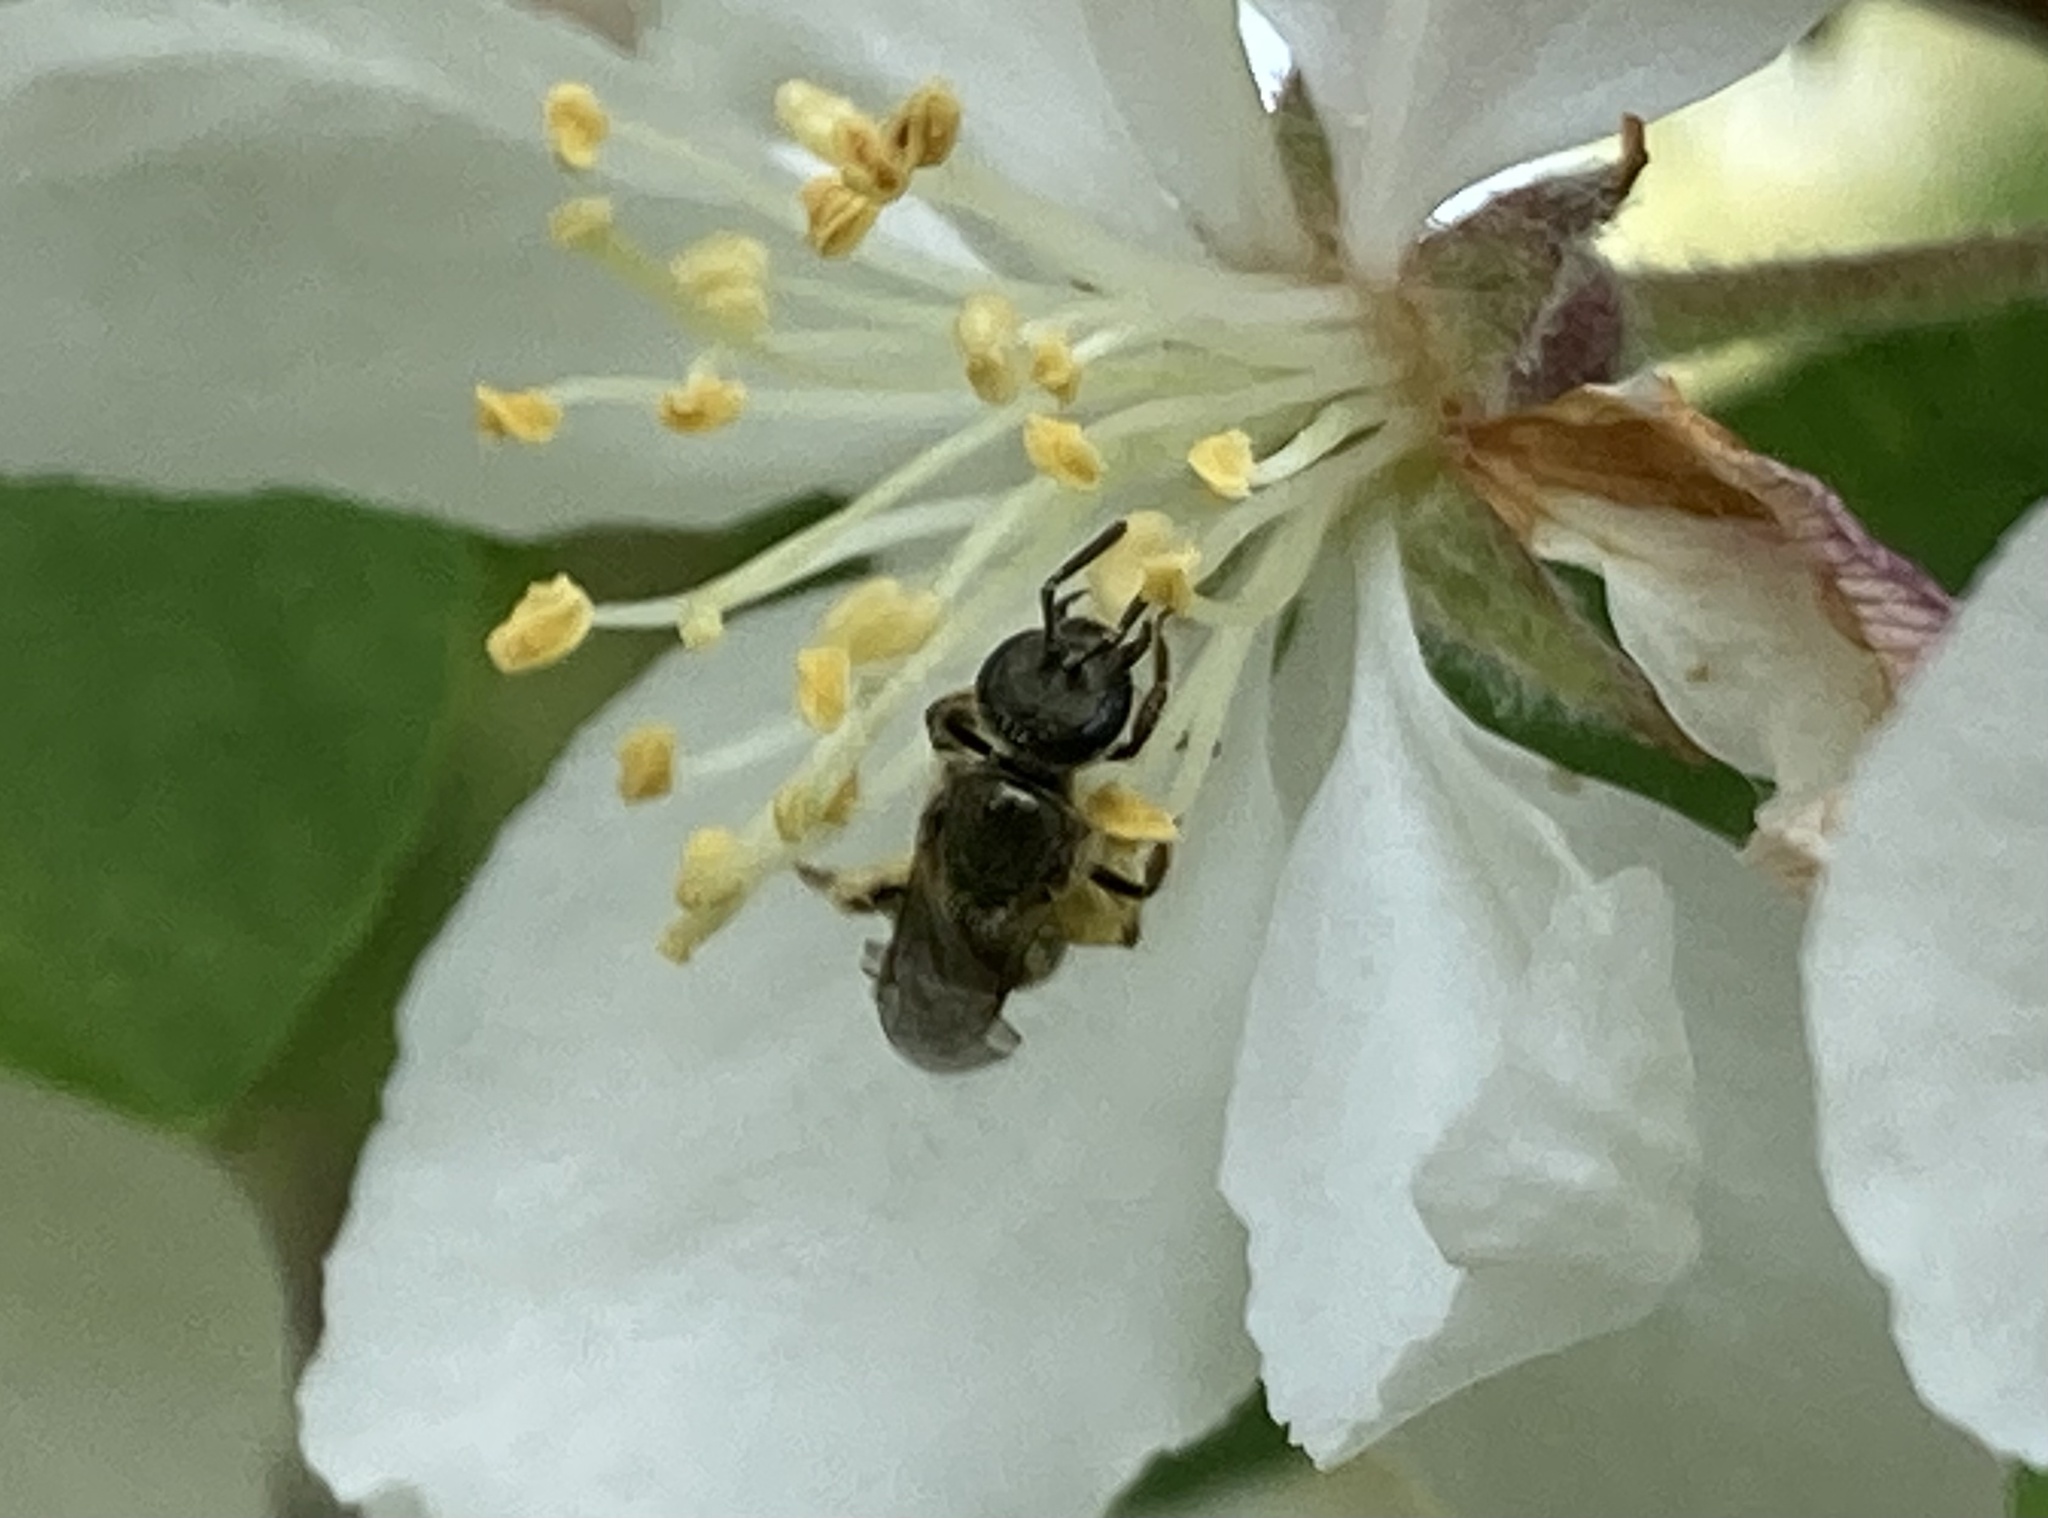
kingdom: Animalia
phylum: Arthropoda
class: Insecta
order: Hymenoptera
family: Halictidae
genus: Dialictus
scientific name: Dialictus
